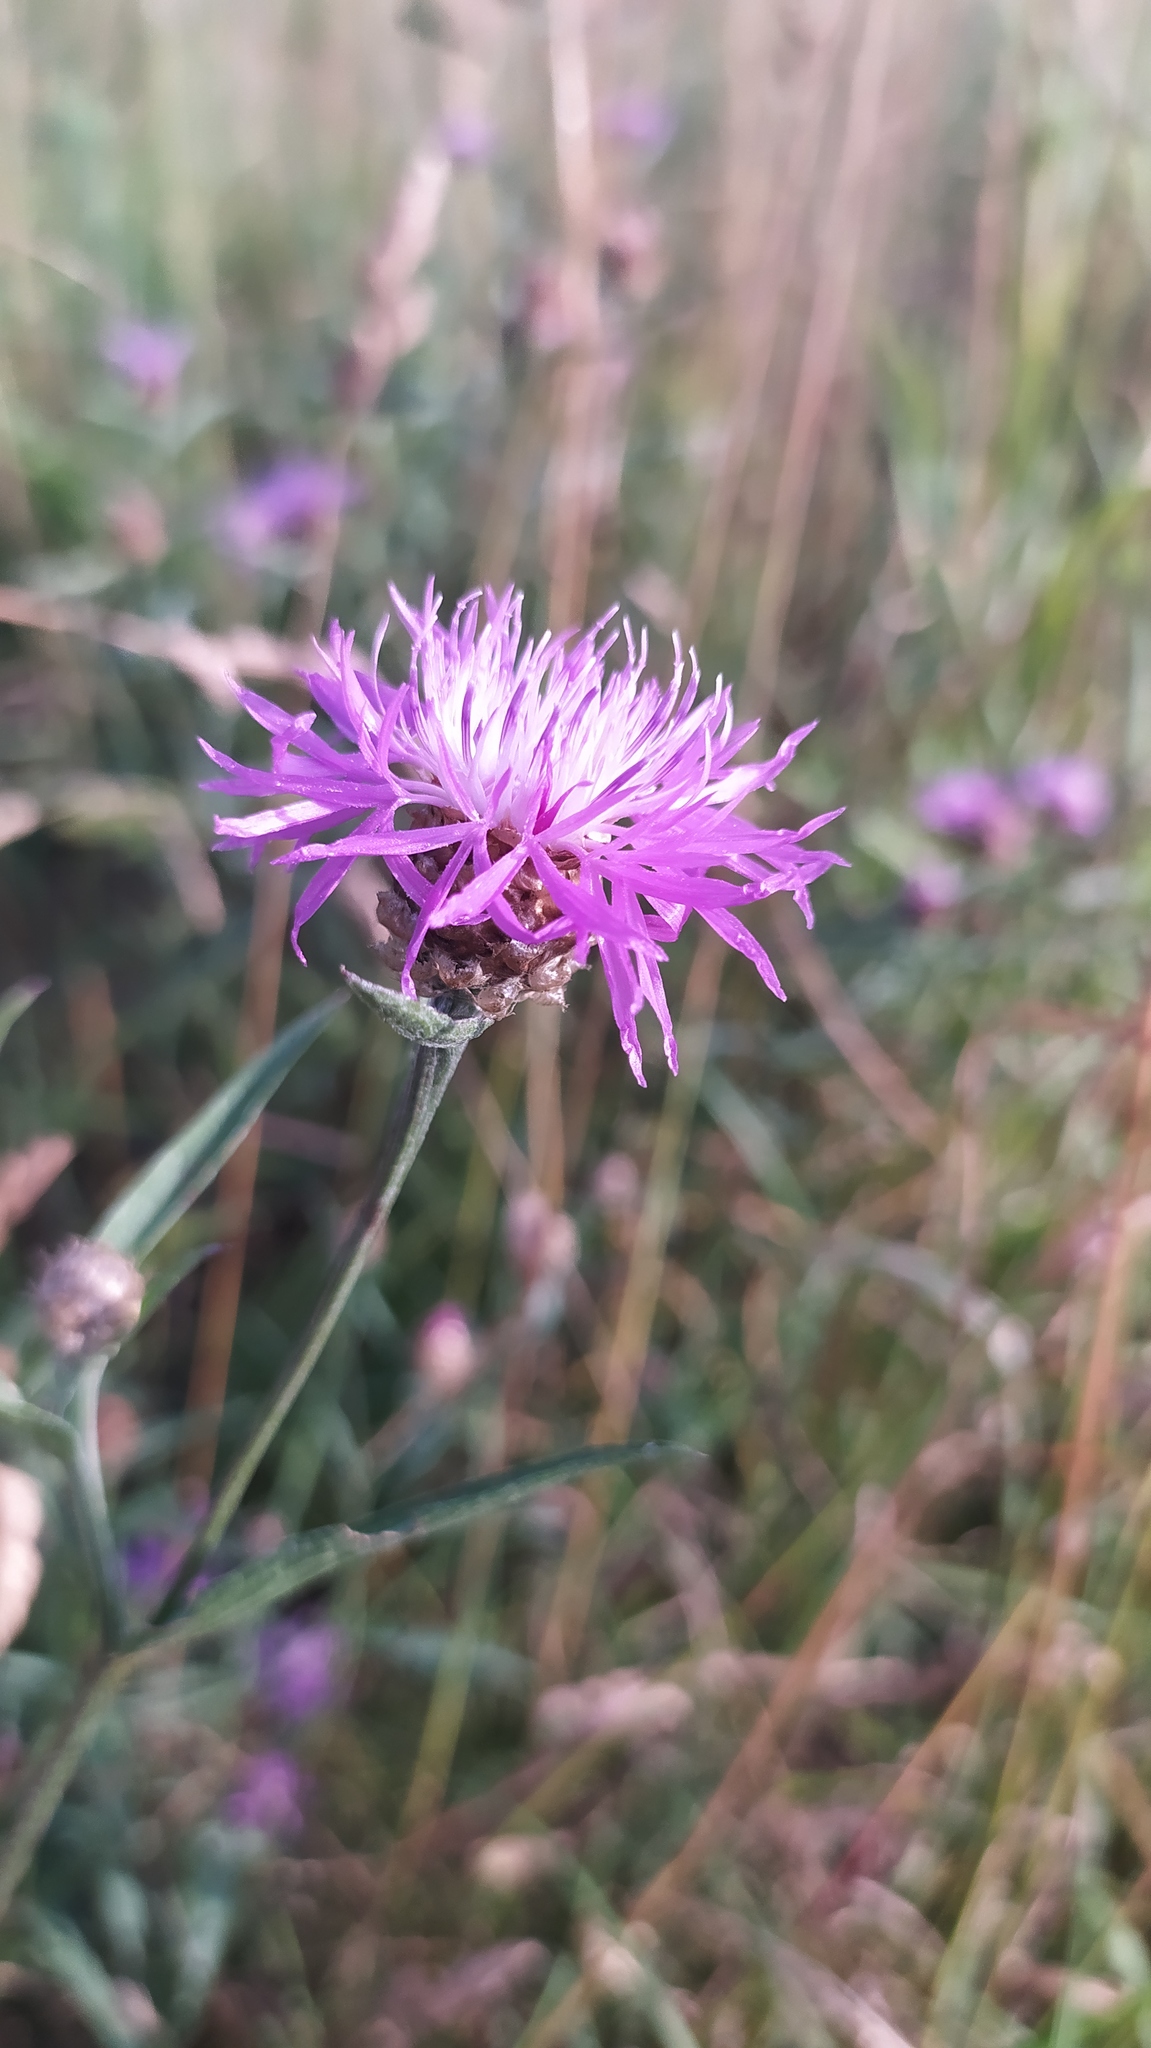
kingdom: Plantae
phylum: Tracheophyta
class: Magnoliopsida
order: Asterales
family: Asteraceae
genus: Centaurea
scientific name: Centaurea jacea
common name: Brown knapweed
